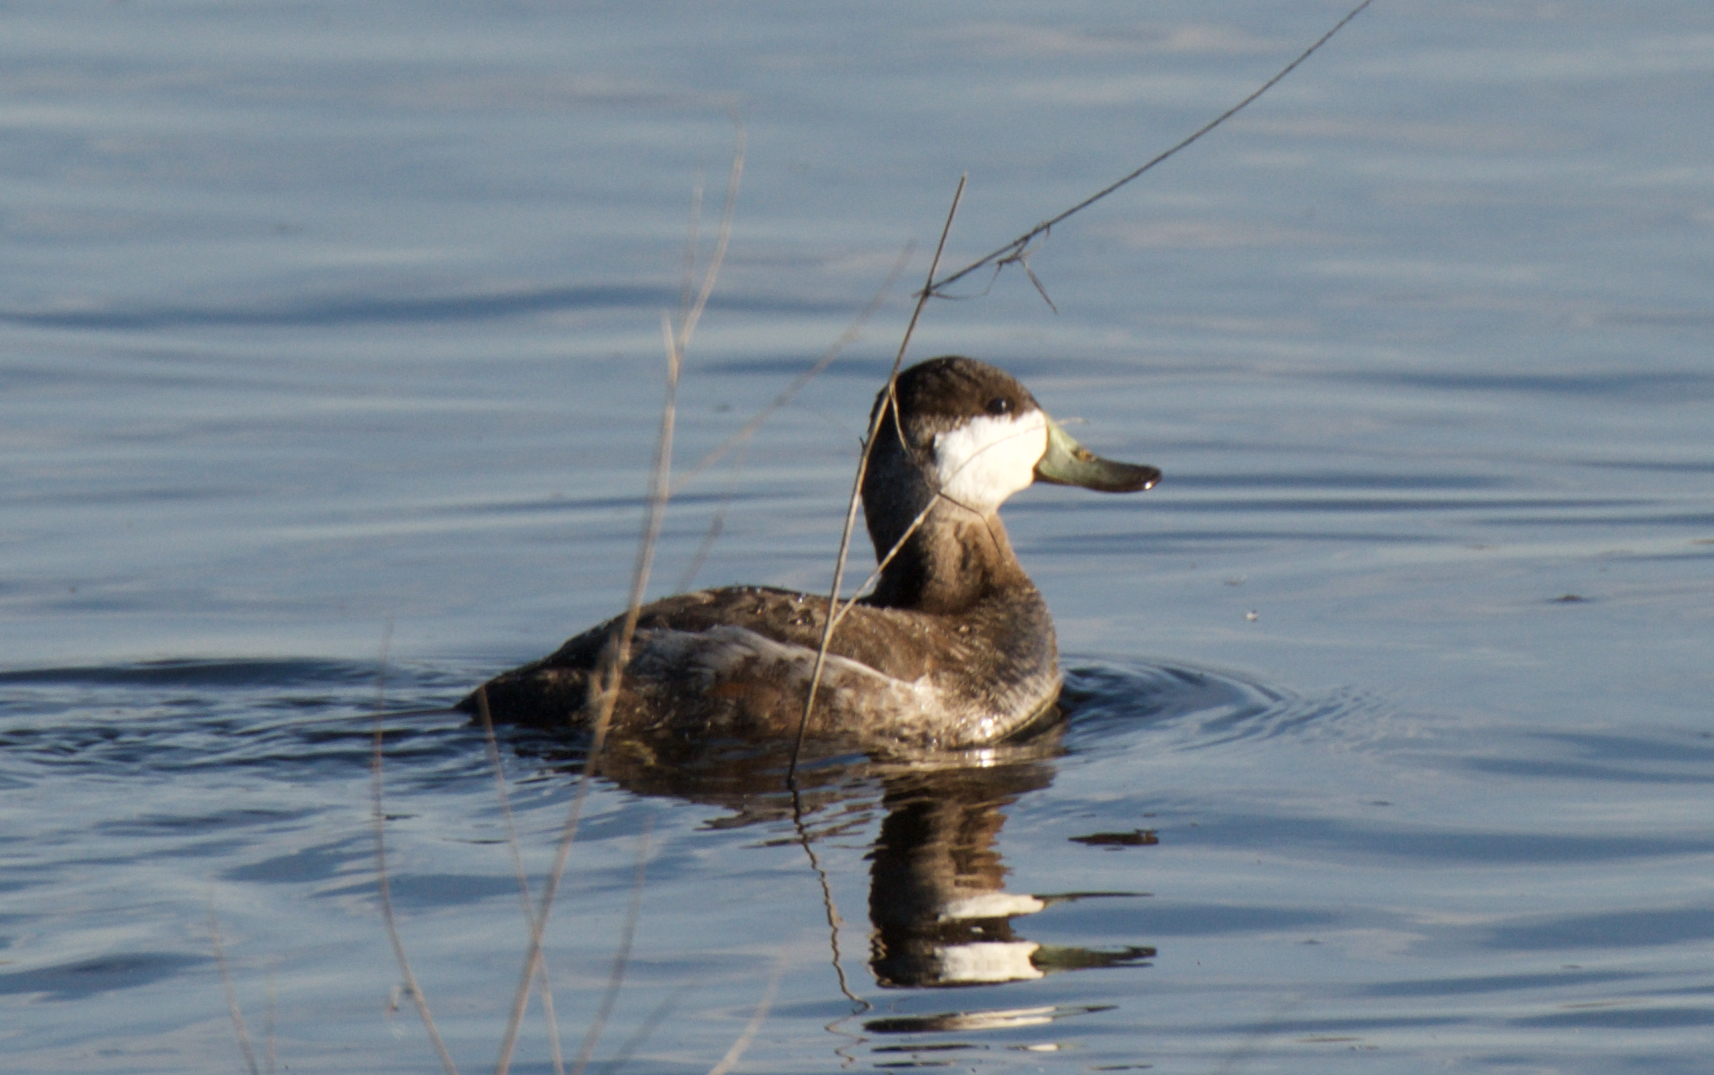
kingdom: Animalia
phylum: Chordata
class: Aves
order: Anseriformes
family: Anatidae
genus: Oxyura
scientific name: Oxyura jamaicensis
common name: Ruddy duck
